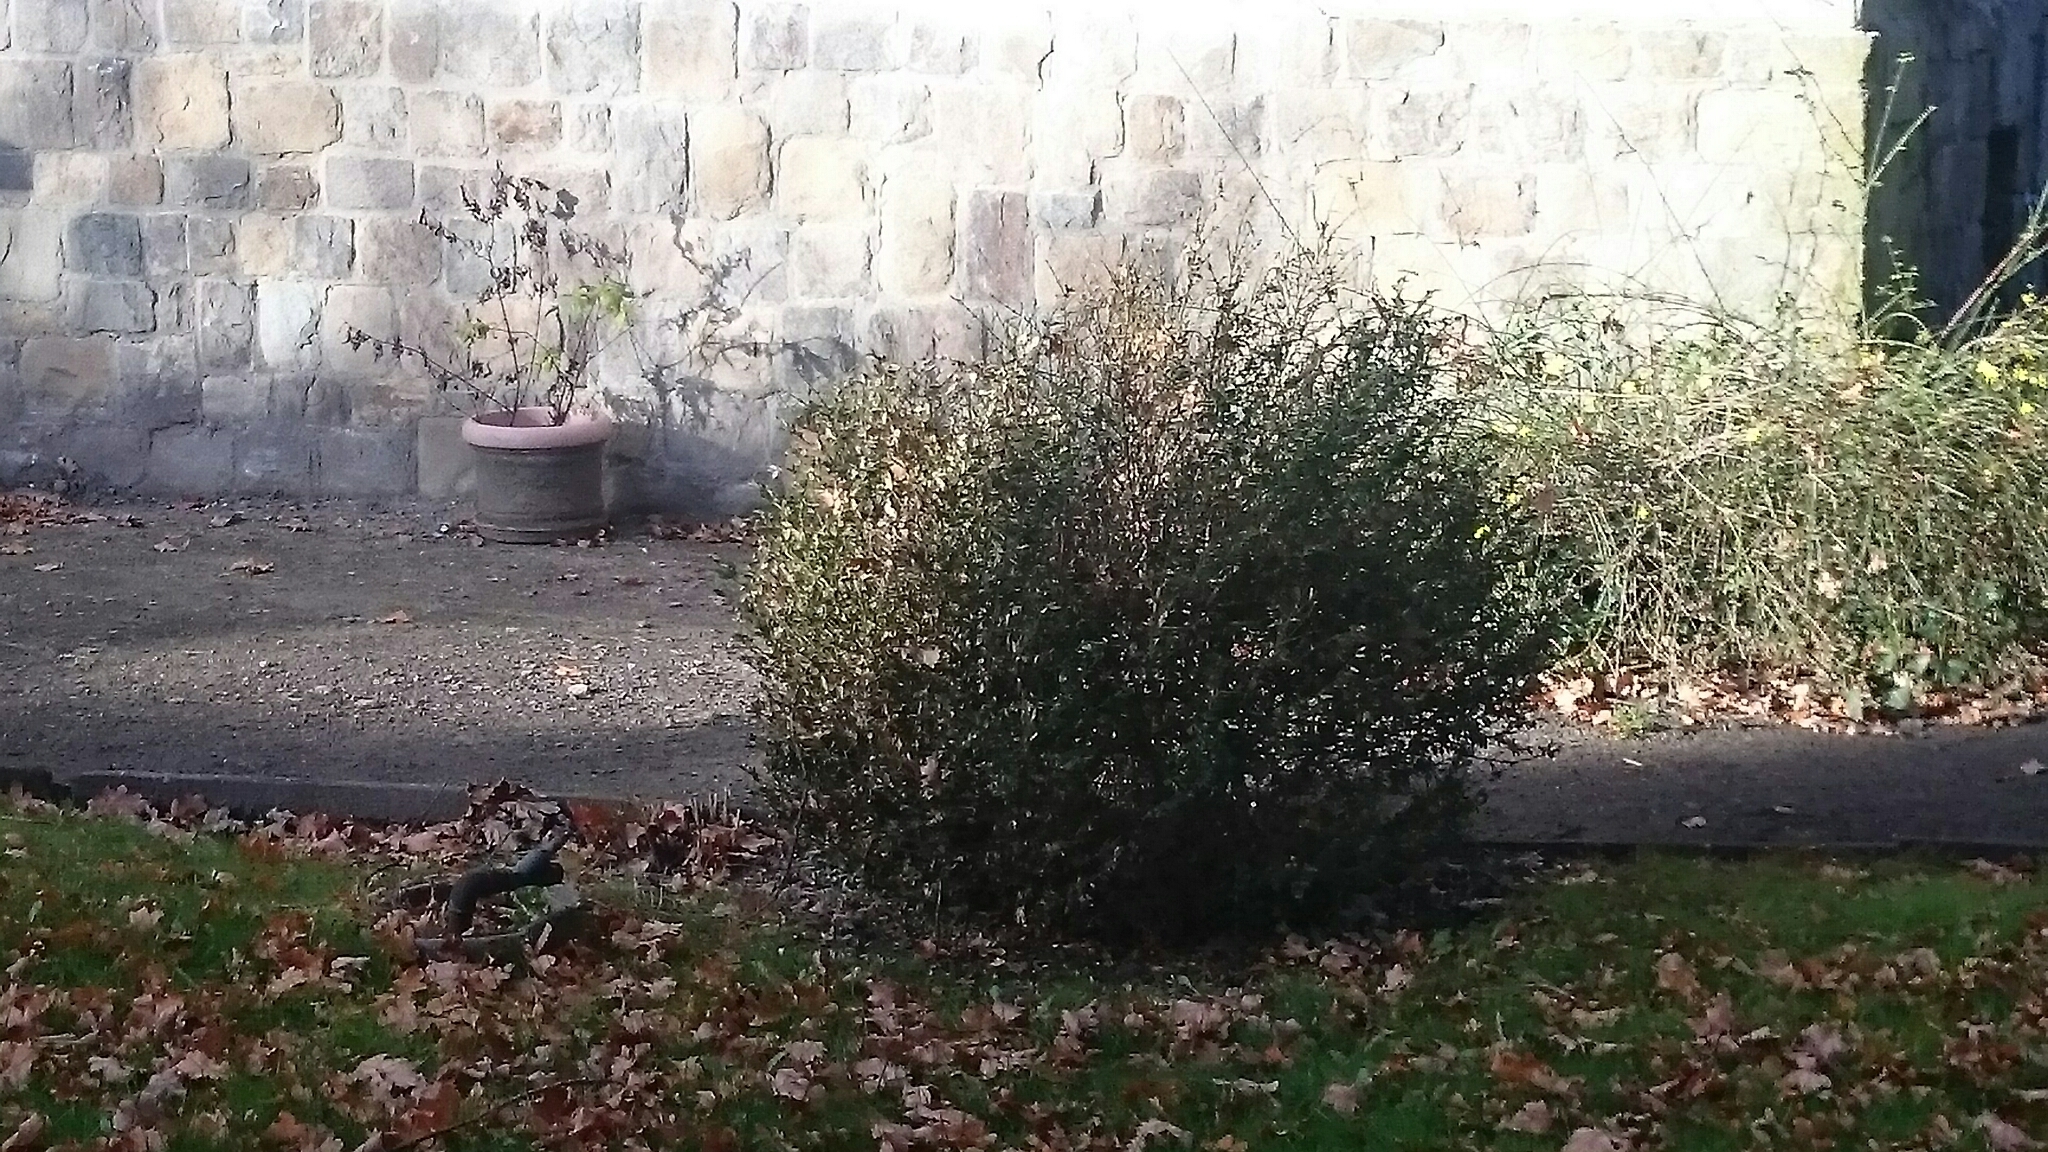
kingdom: Animalia
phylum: Arthropoda
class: Insecta
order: Lepidoptera
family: Crambidae
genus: Cydalima
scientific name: Cydalima perspectalis
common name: Box tree moth
